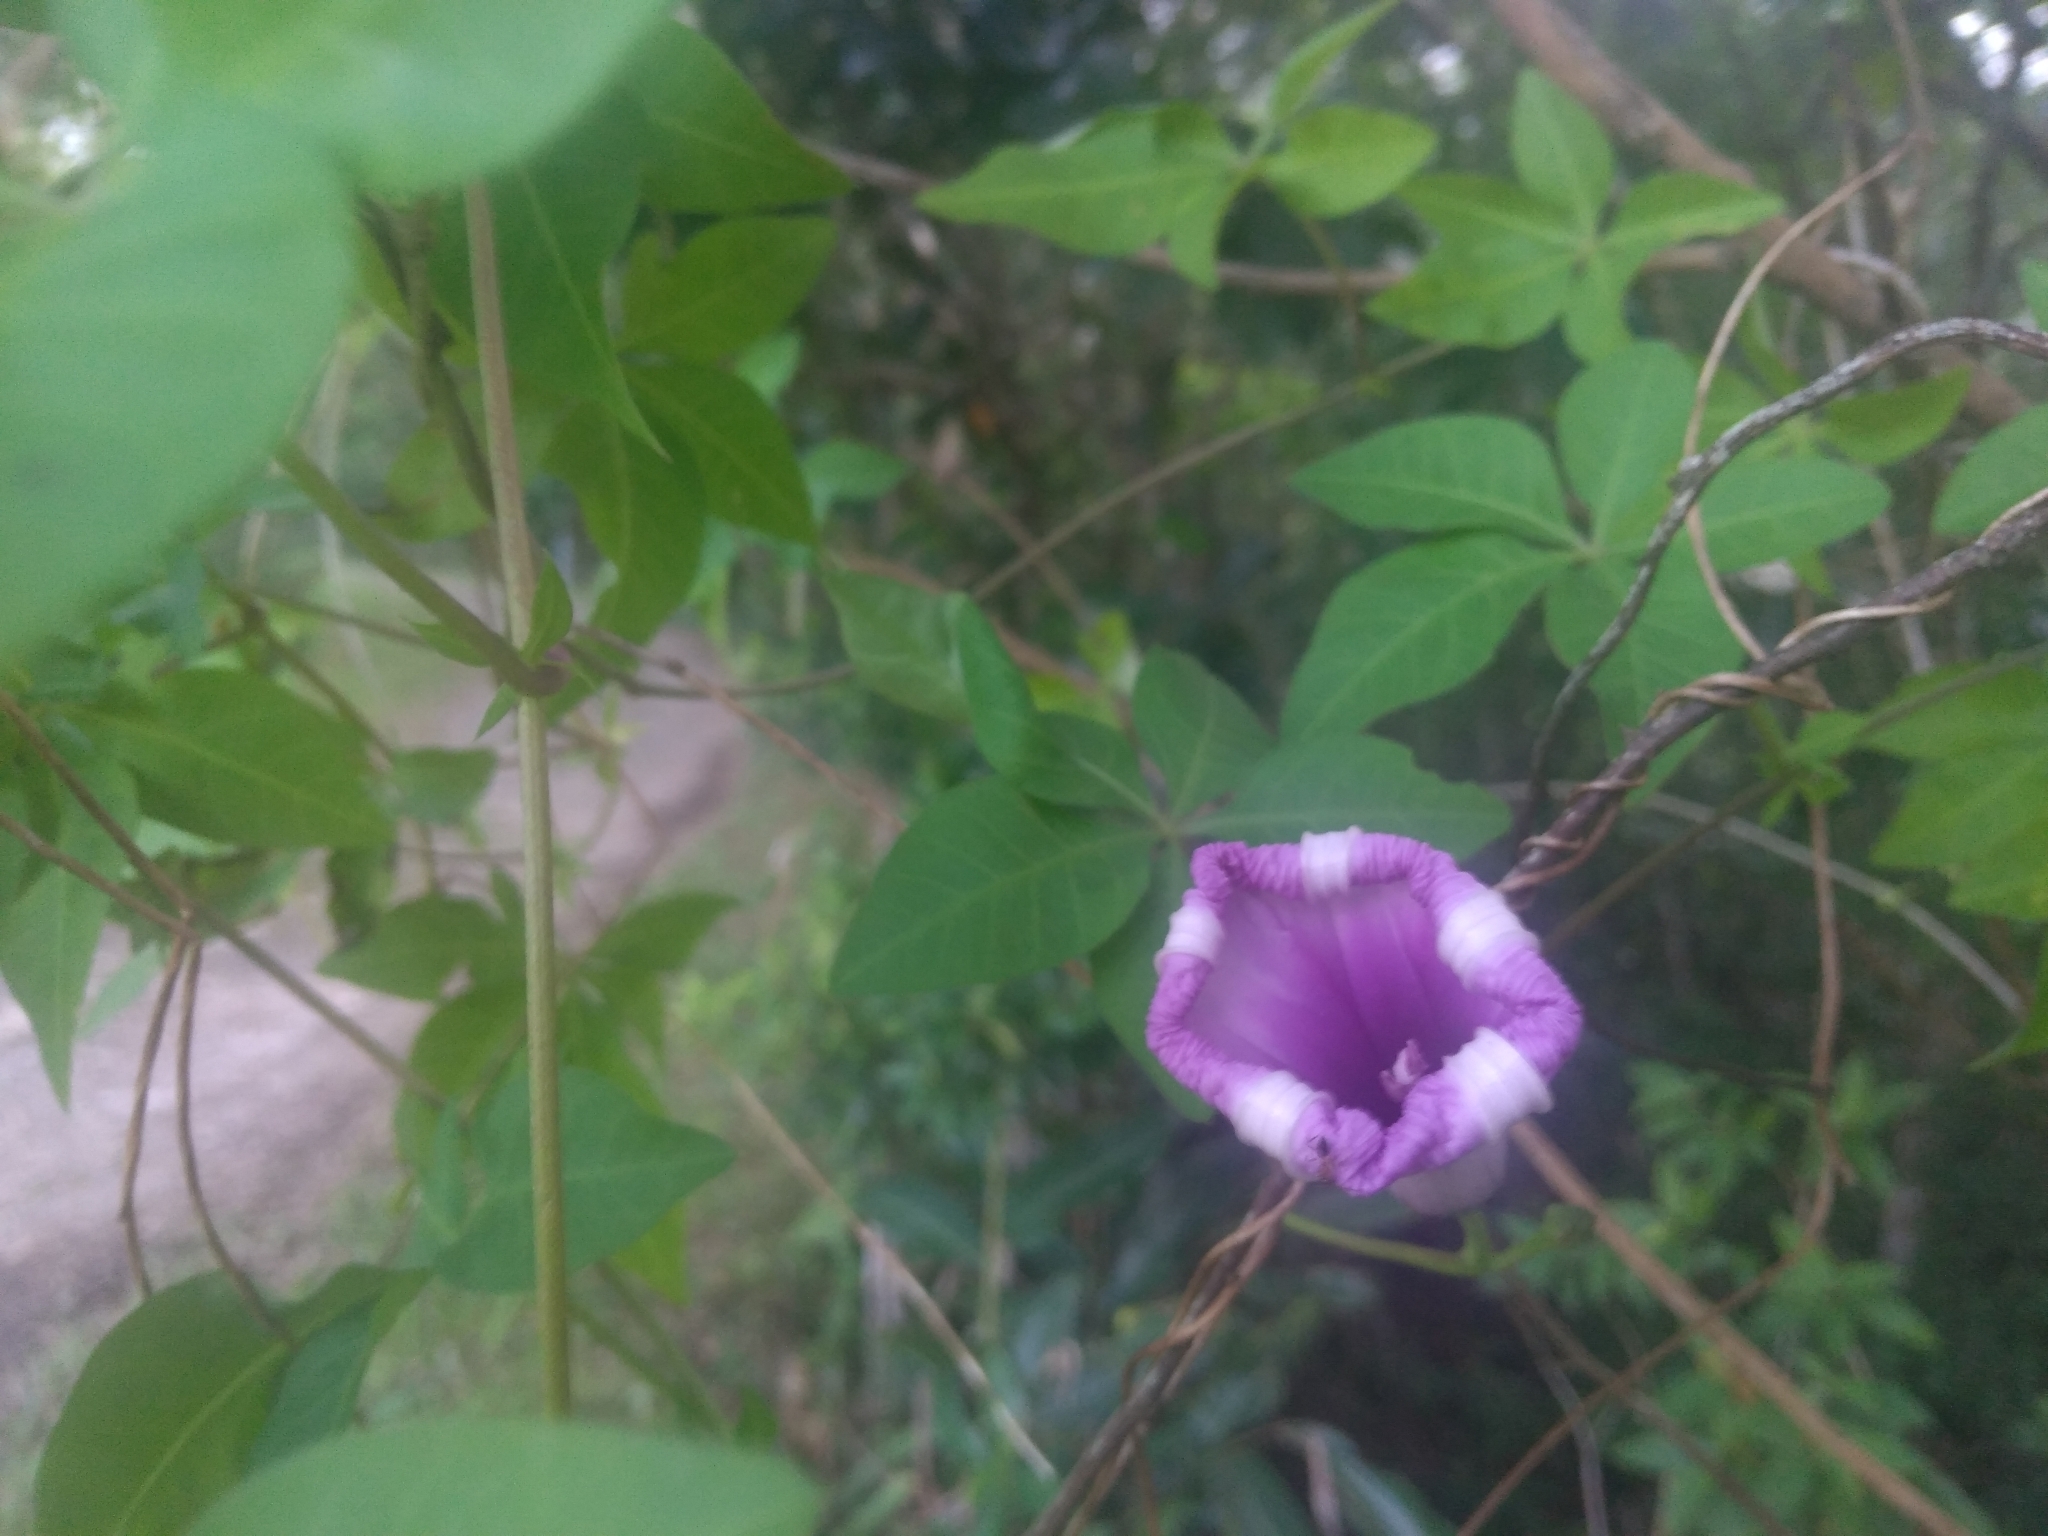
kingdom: Plantae
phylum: Tracheophyta
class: Magnoliopsida
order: Solanales
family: Convolvulaceae
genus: Ipomoea
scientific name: Ipomoea cairica
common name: Mile a minute vine
